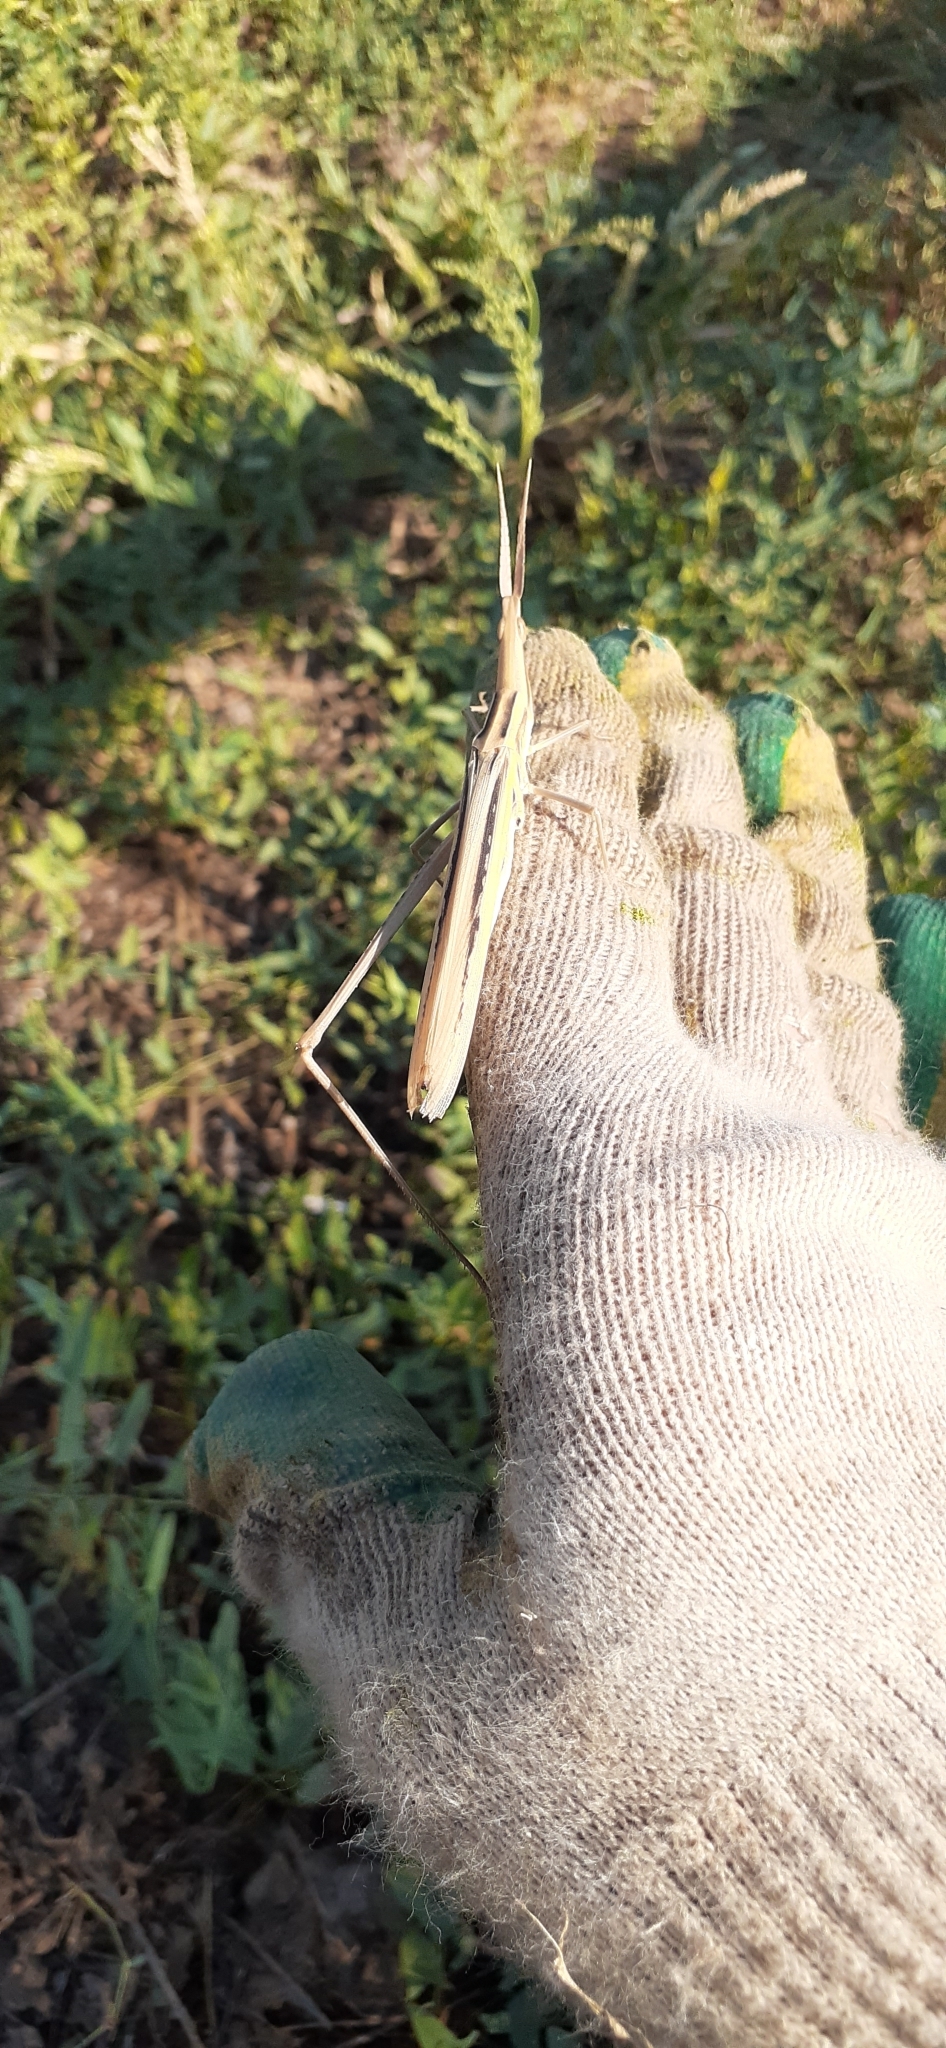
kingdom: Animalia
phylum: Arthropoda
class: Insecta
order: Orthoptera
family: Acrididae
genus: Acrida
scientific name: Acrida ungarica
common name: Common cone-headed grasshopper
